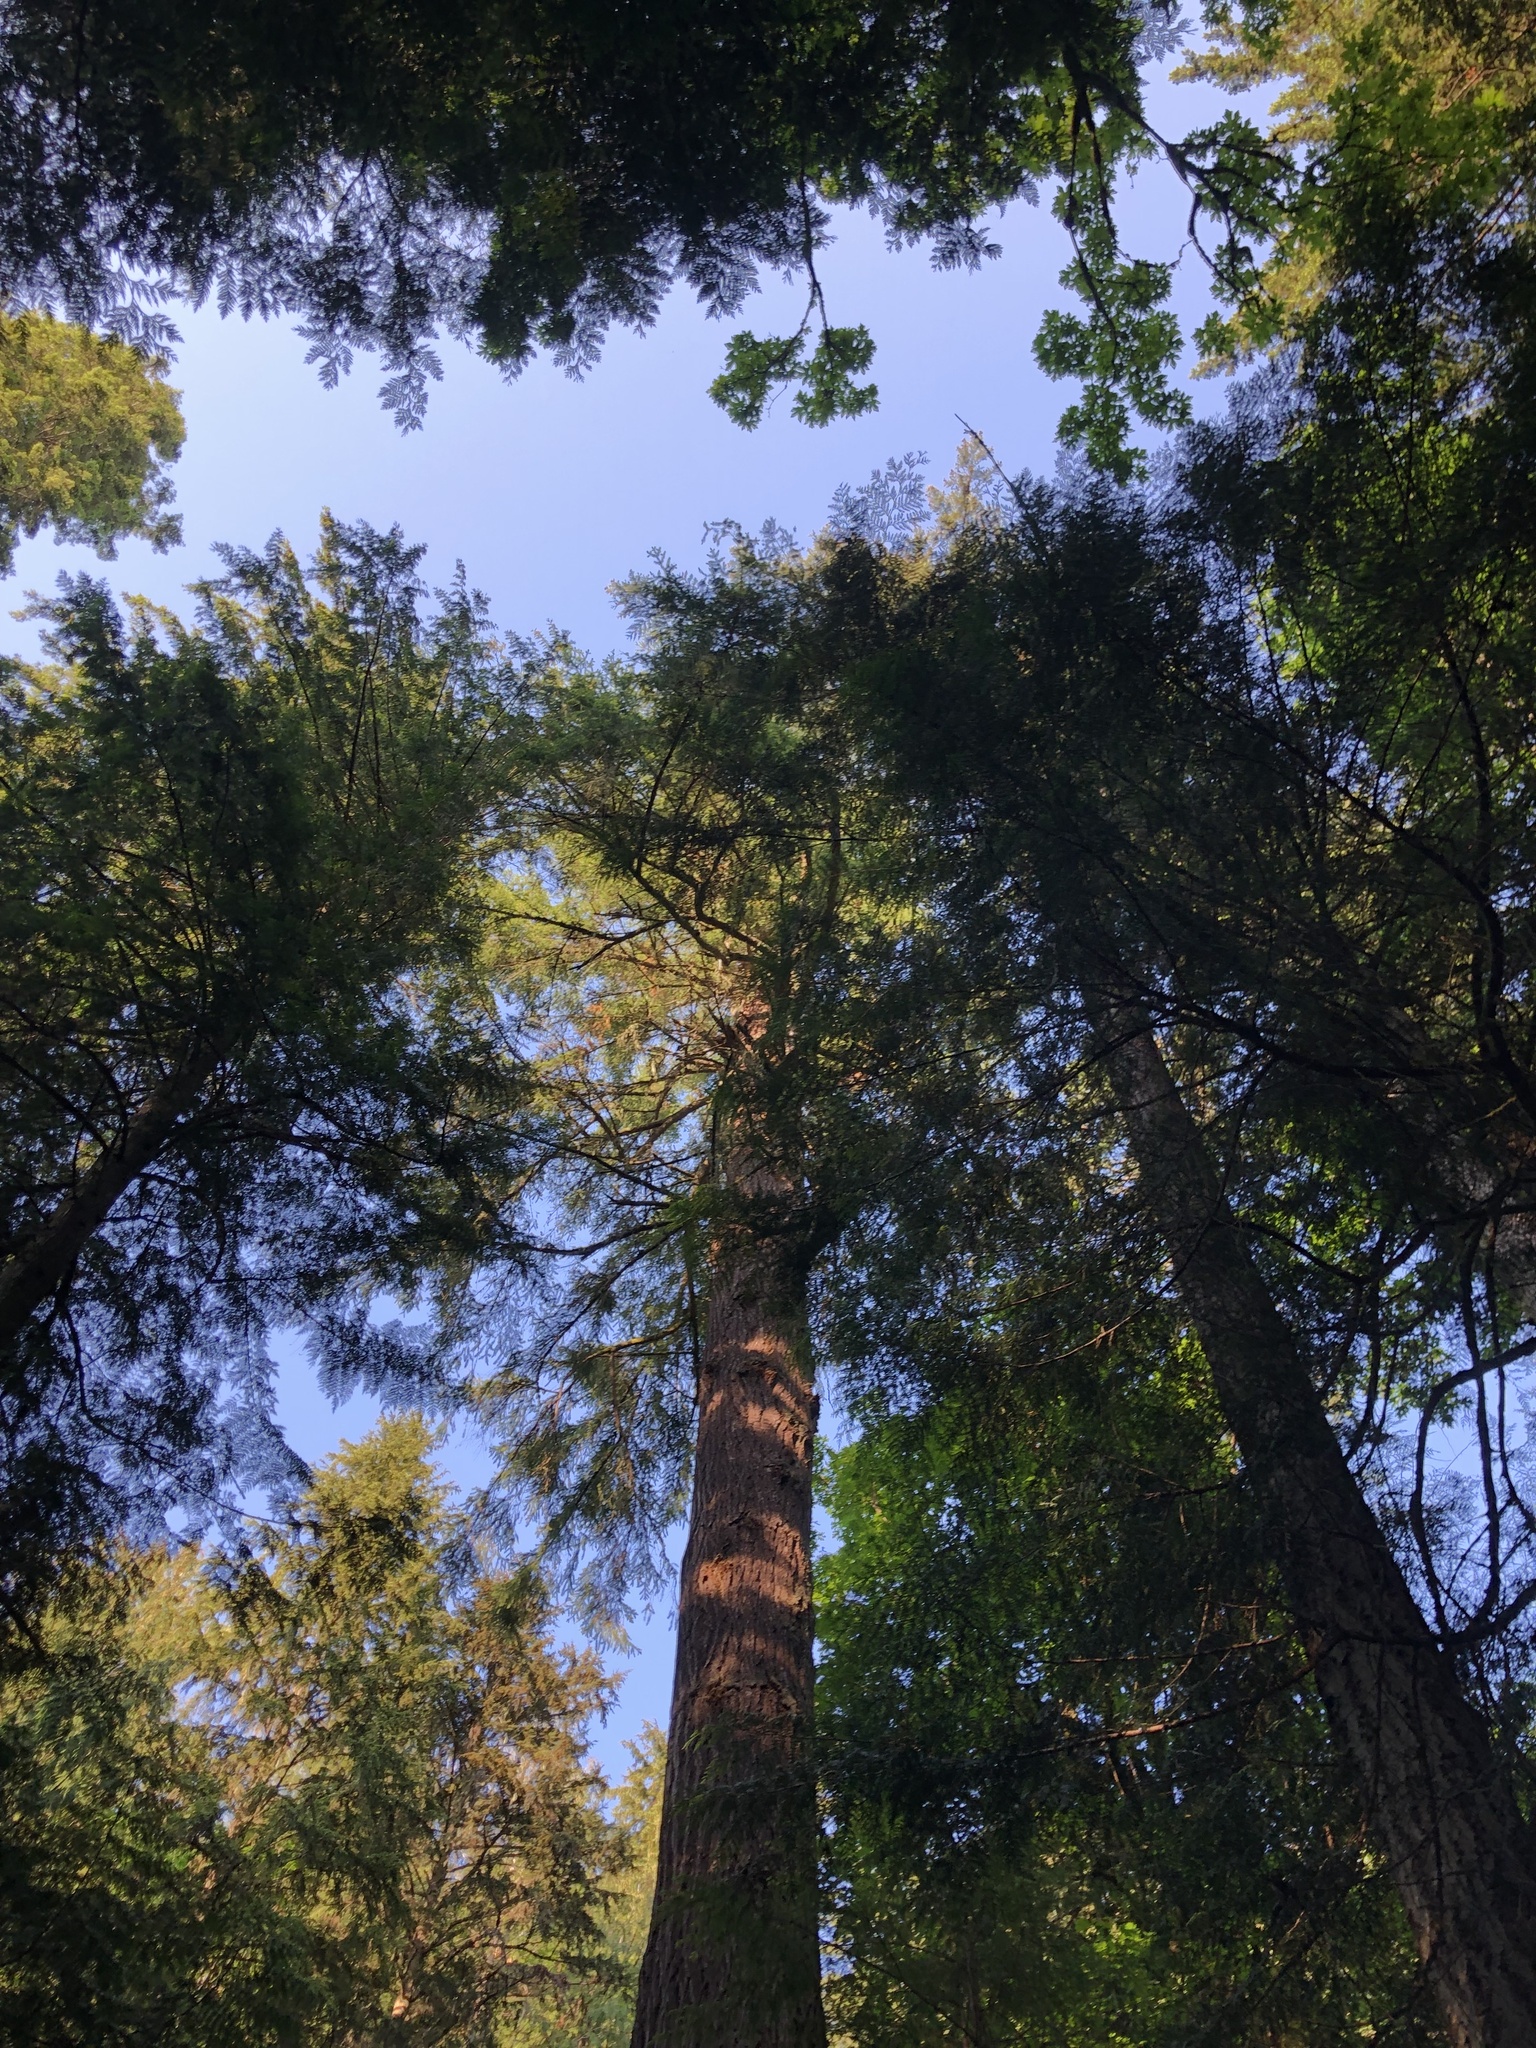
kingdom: Plantae
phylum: Tracheophyta
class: Pinopsida
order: Pinales
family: Pinaceae
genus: Pseudotsuga
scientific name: Pseudotsuga menziesii
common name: Douglas fir
